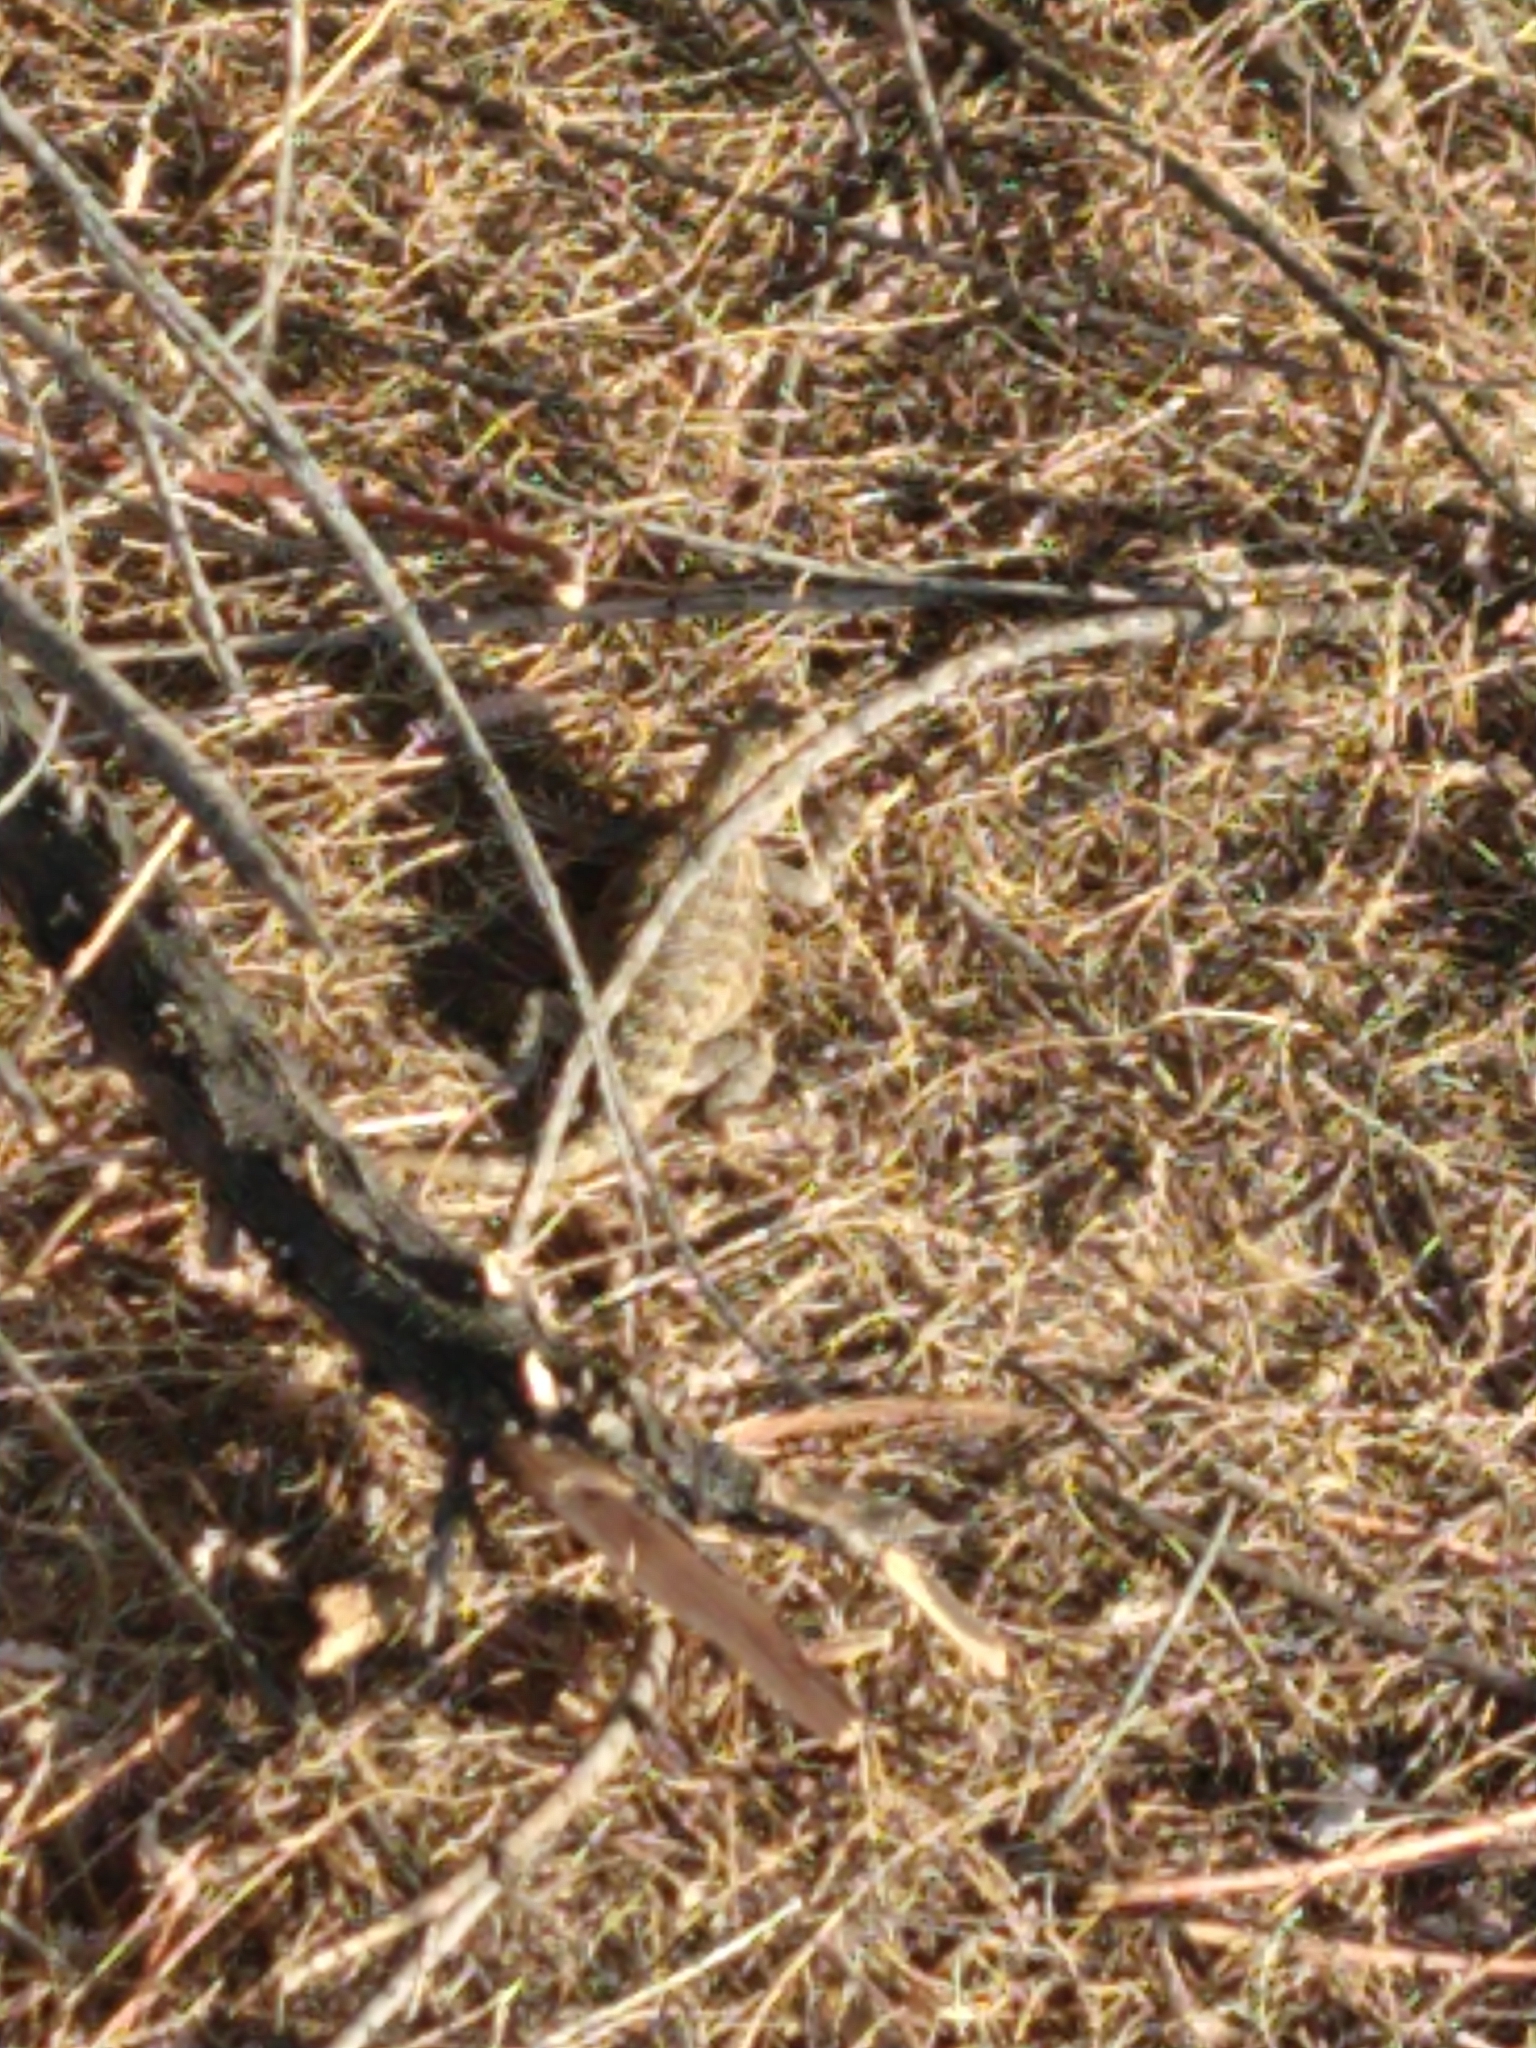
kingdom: Animalia
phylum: Chordata
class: Squamata
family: Phrynosomatidae
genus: Sceloporus
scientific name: Sceloporus magister
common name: Desert spiny lizard
